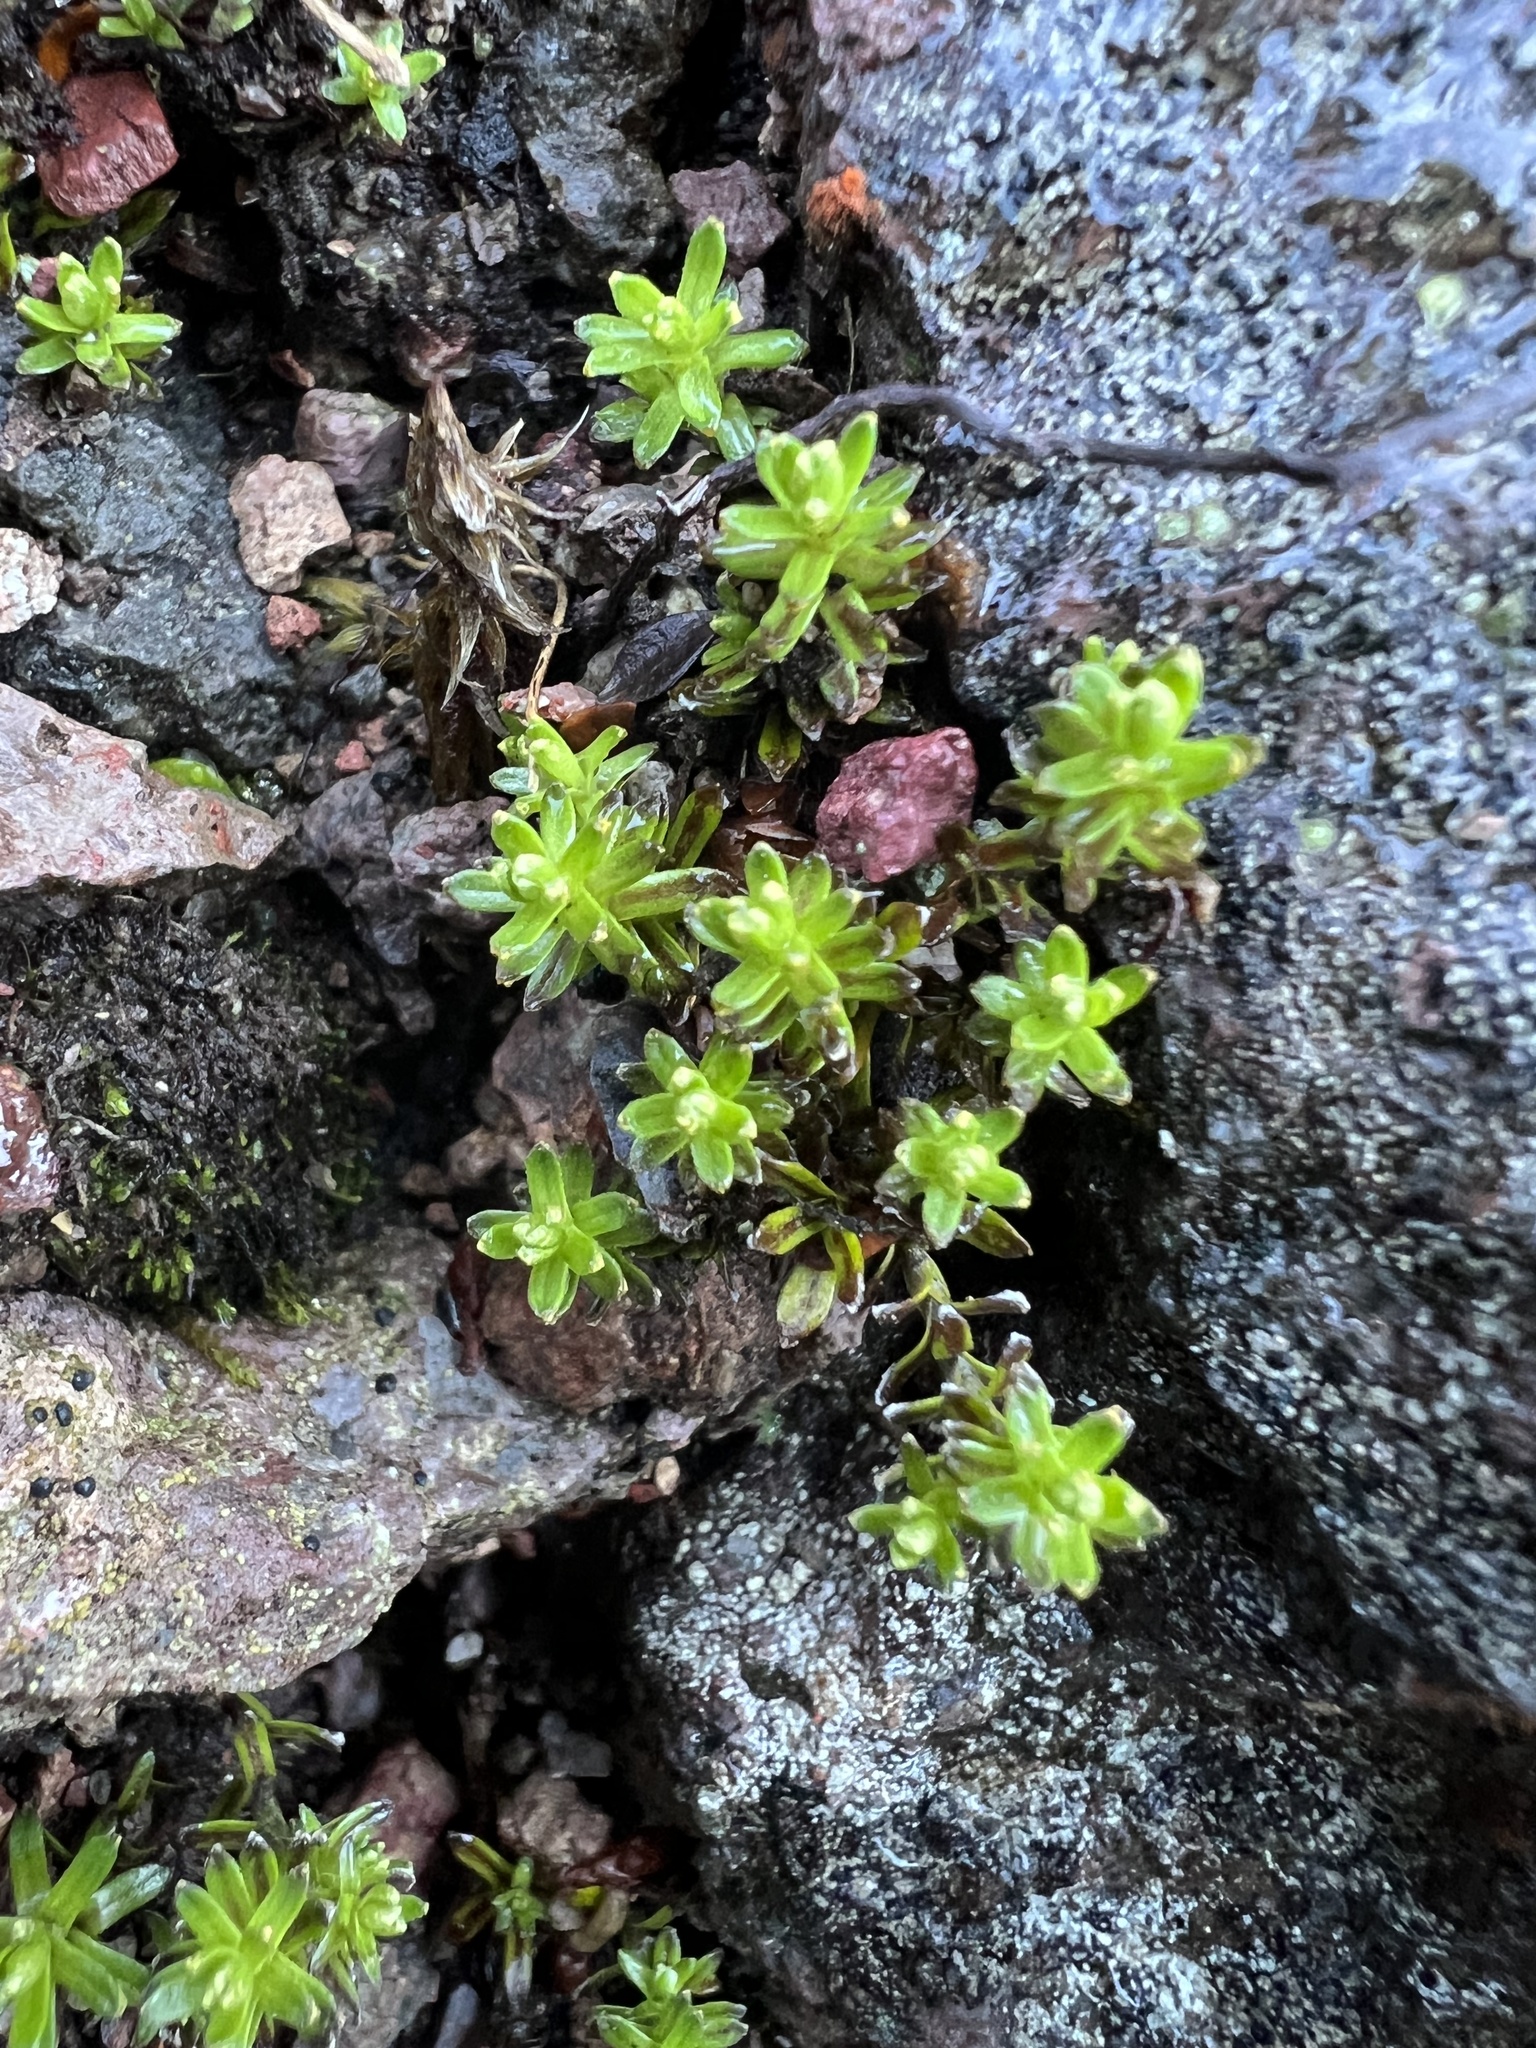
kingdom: Plantae
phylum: Tracheophyta
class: Magnoliopsida
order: Asterales
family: Asteraceae
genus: Raoulia
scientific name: Raoulia glabra
